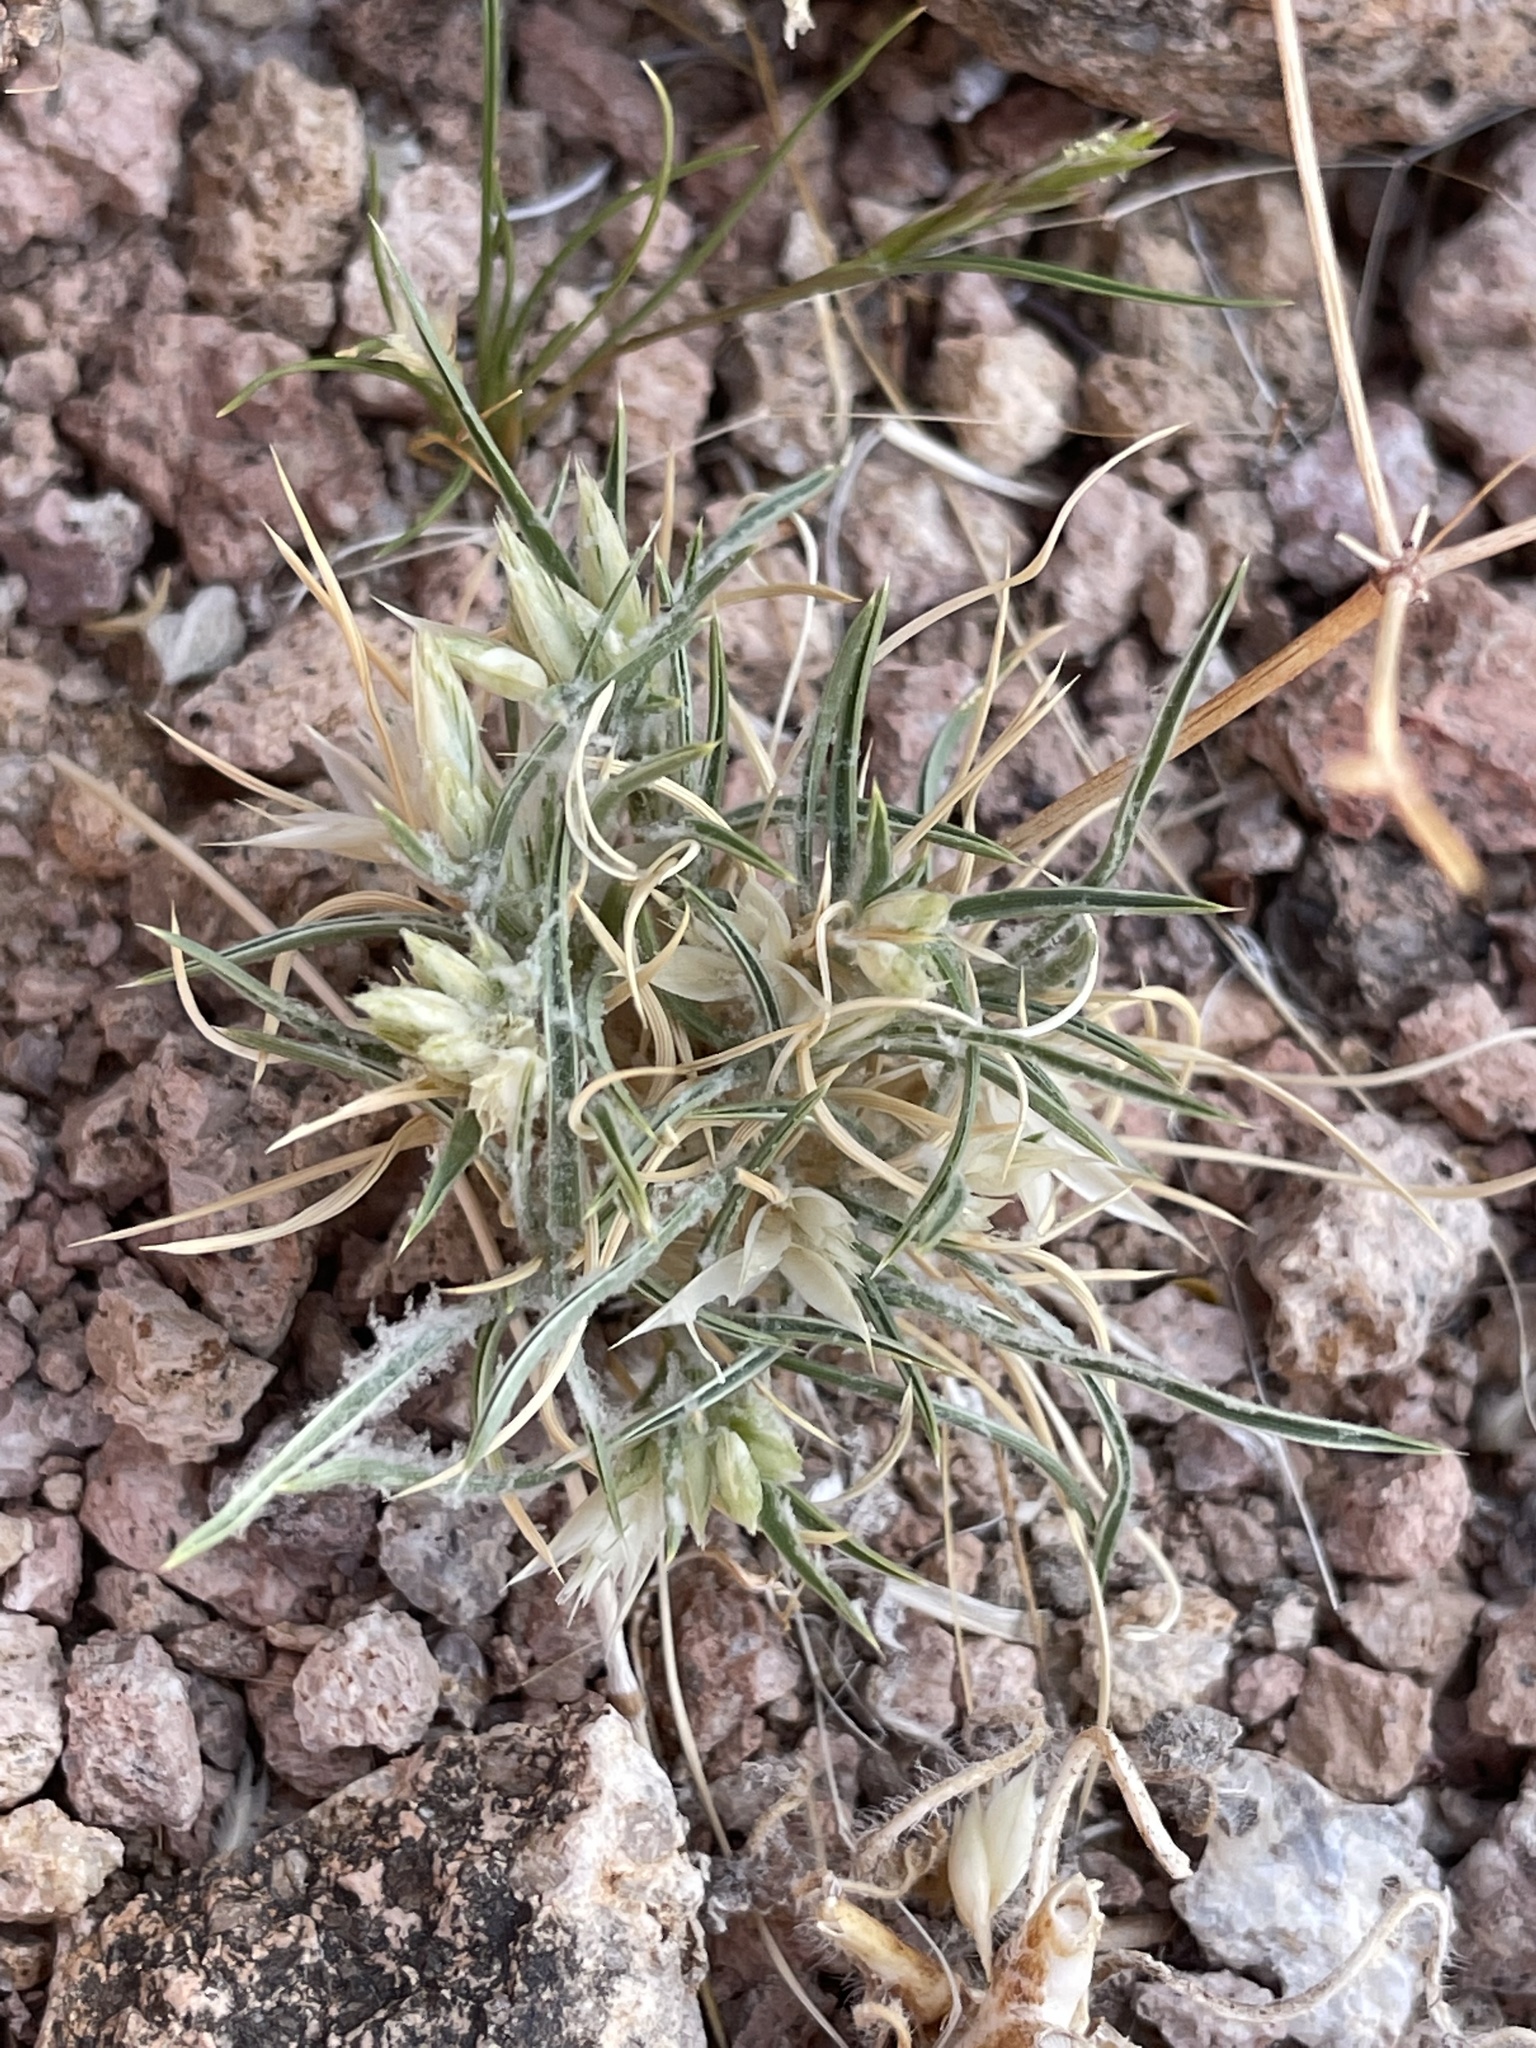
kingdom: Plantae
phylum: Tracheophyta
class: Liliopsida
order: Poales
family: Poaceae
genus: Dasyochloa
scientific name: Dasyochloa pulchella
